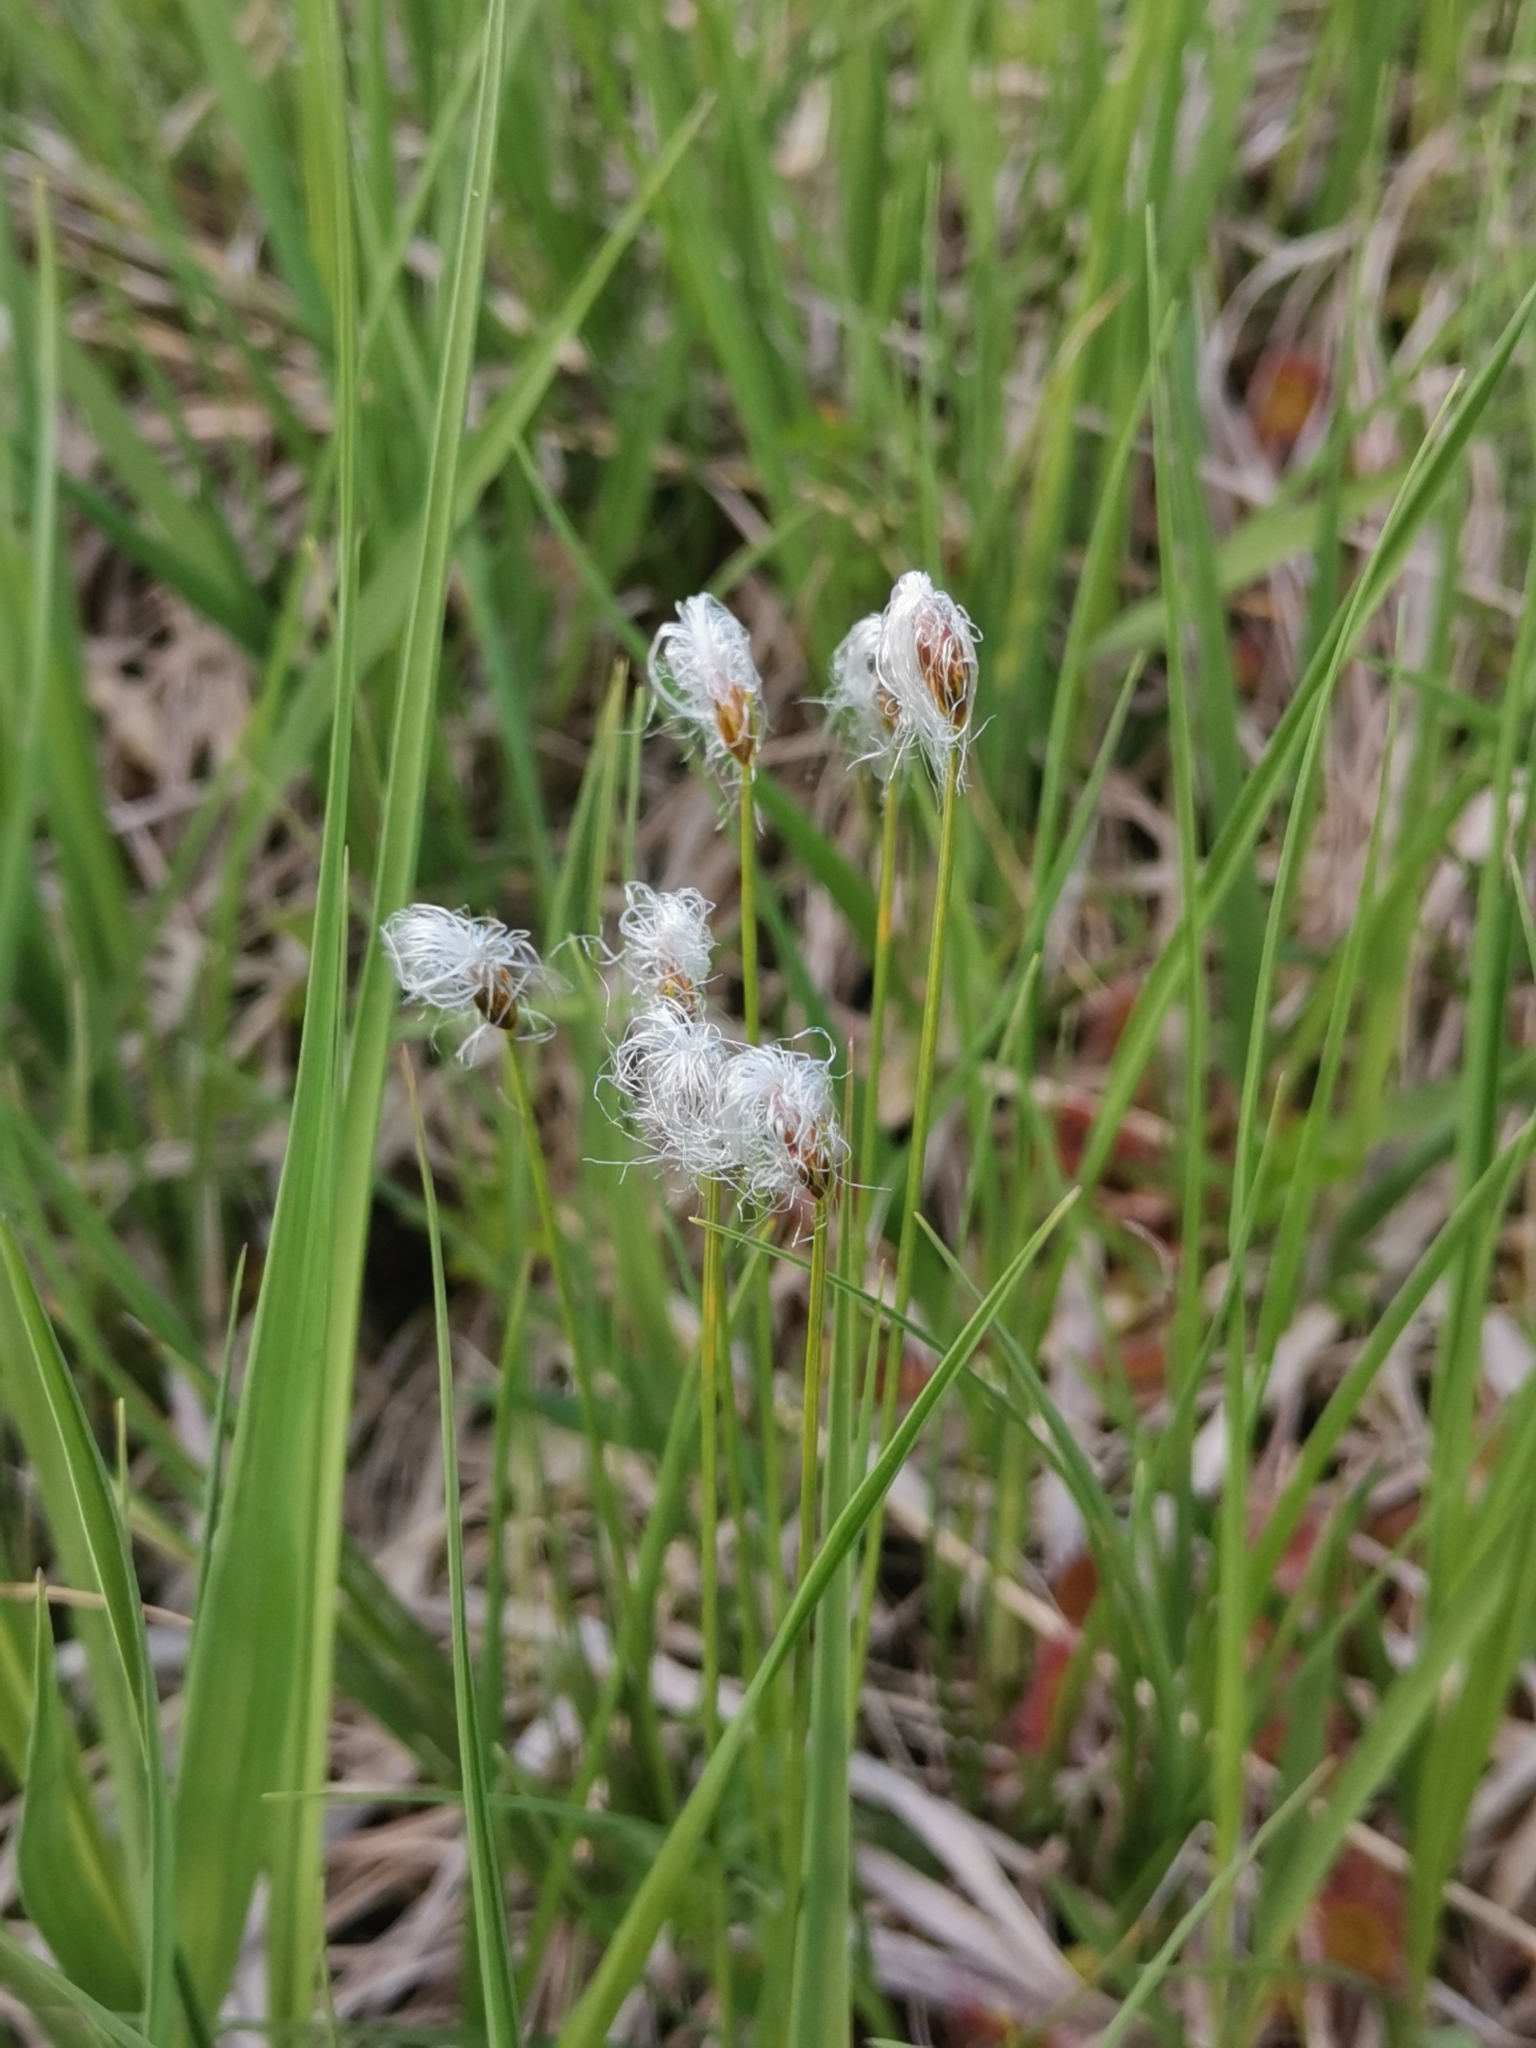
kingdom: Plantae
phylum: Tracheophyta
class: Liliopsida
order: Poales
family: Cyperaceae
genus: Trichophorum
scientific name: Trichophorum alpinum
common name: Alpine bulrush
